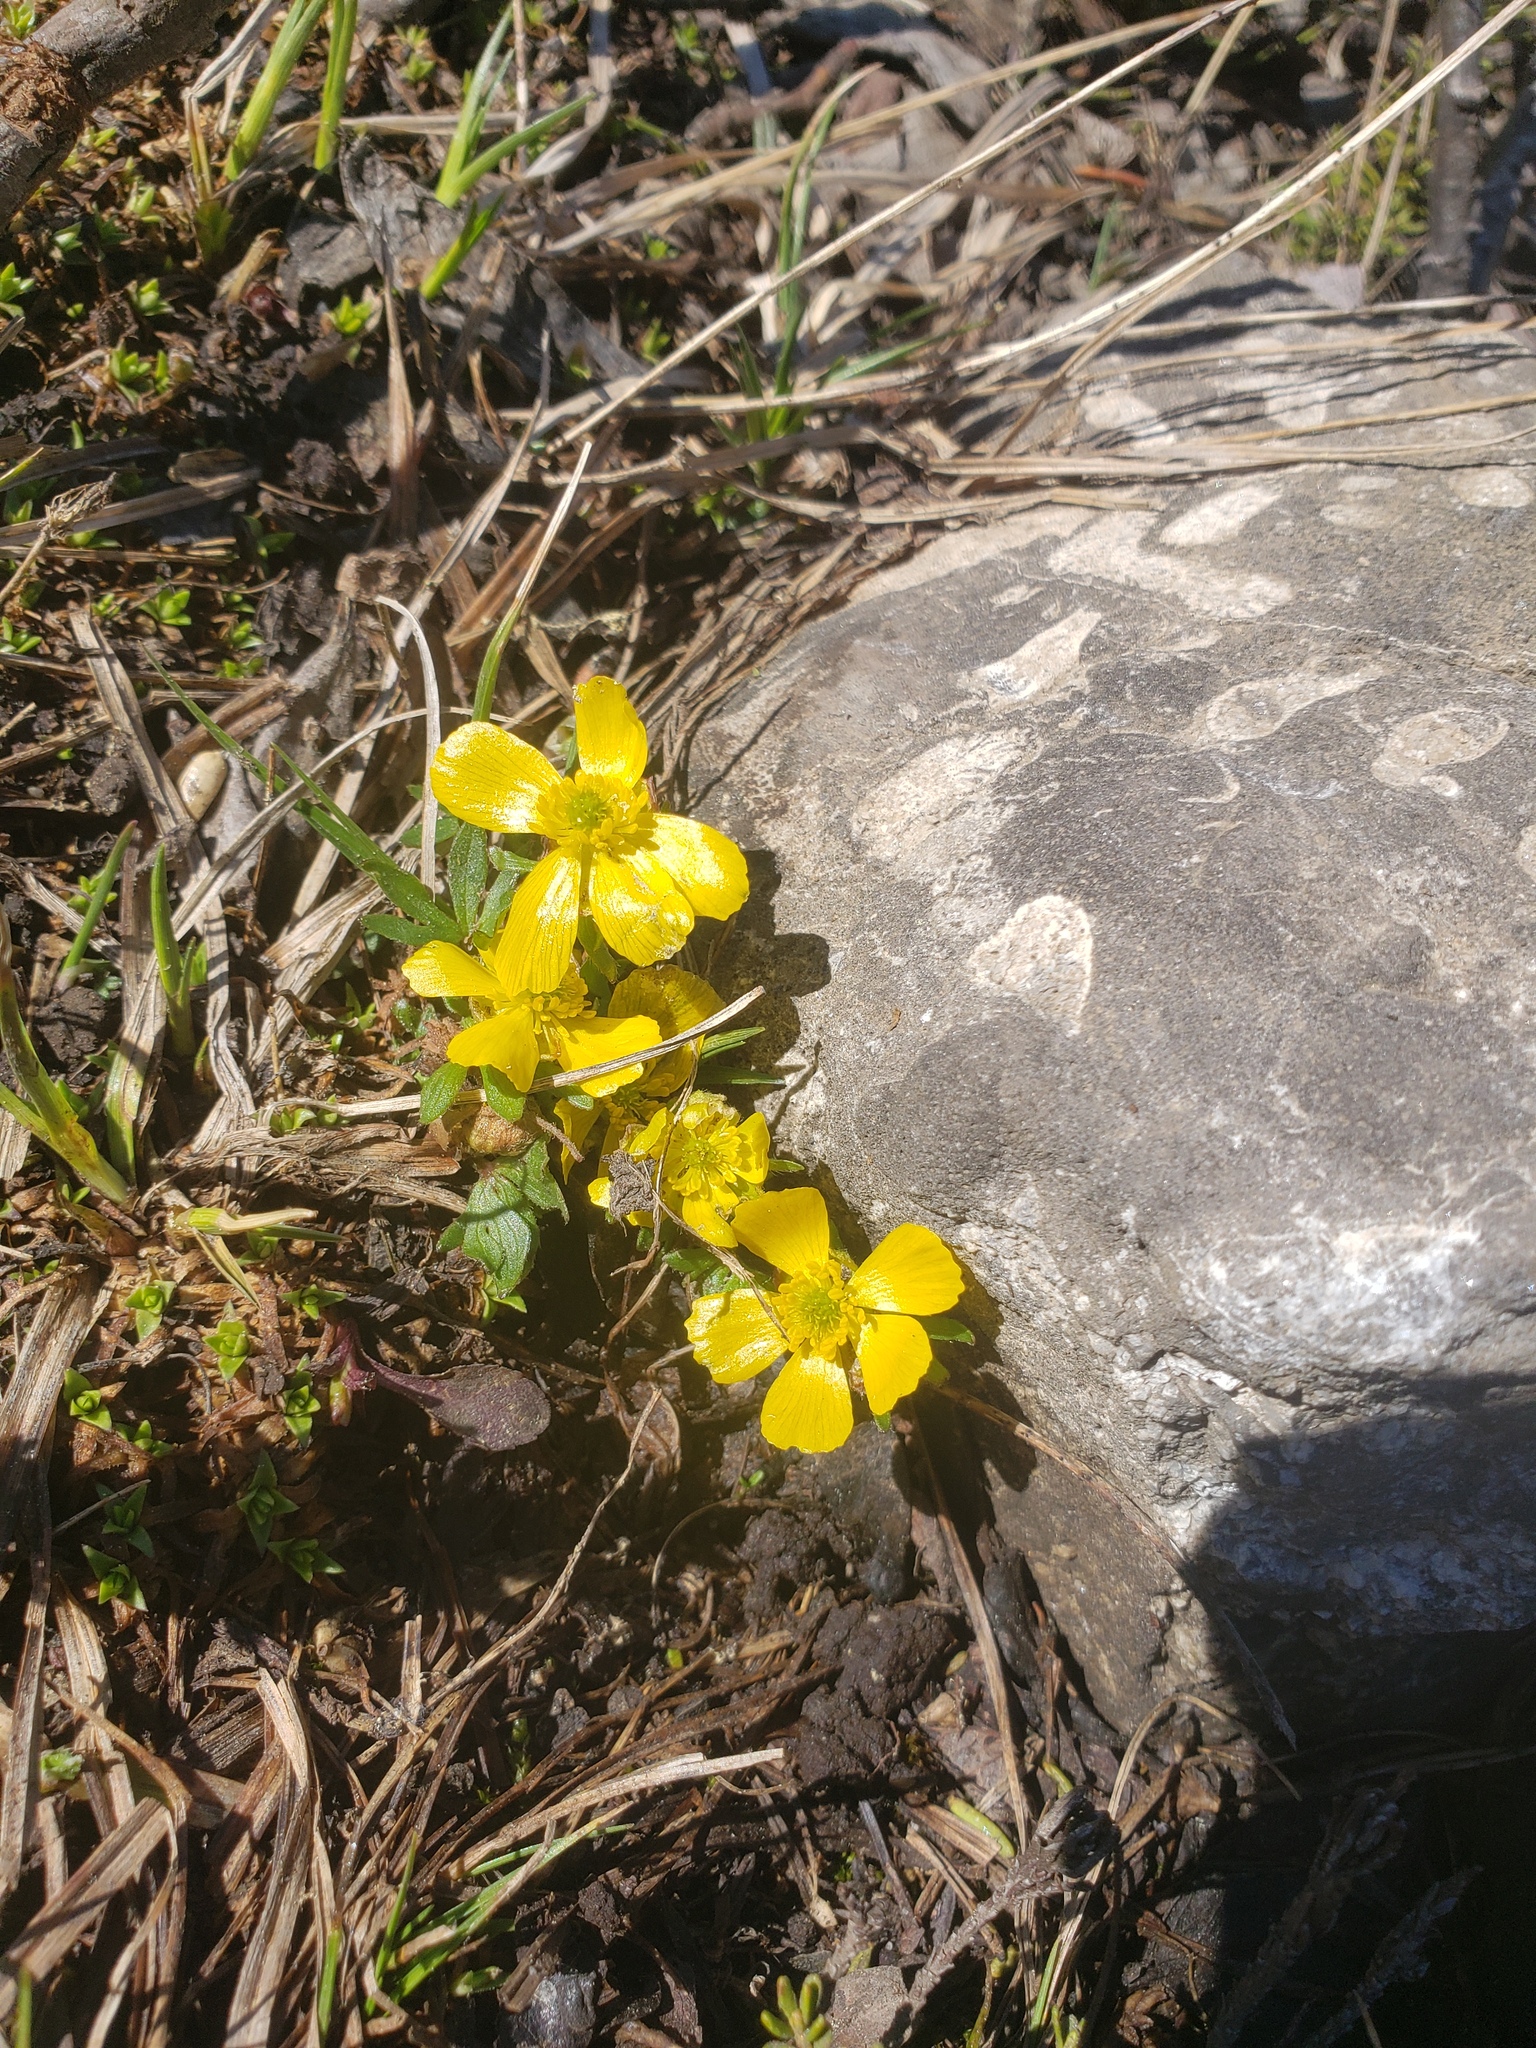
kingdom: Plantae
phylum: Tracheophyta
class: Magnoliopsida
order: Ranunculales
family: Ranunculaceae
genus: Ranunculus
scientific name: Ranunculus eschscholtzii
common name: Eschscholtz's buttercup
